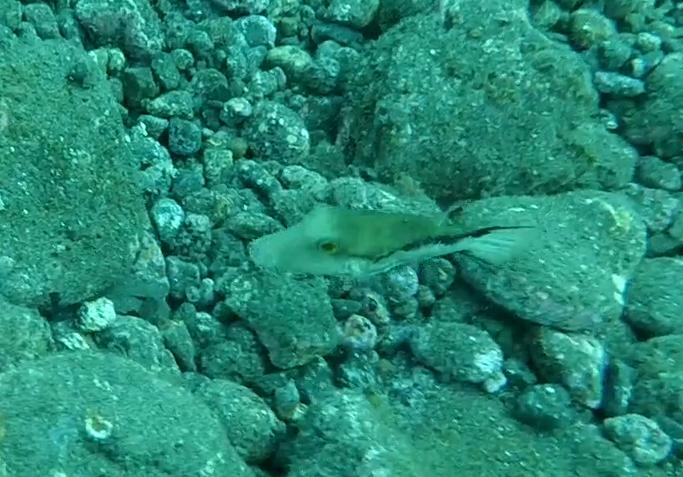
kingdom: Animalia
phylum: Chordata
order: Tetraodontiformes
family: Tetraodontidae
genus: Canthigaster
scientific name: Canthigaster capistrata
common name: Macaronesian sharpnose-puffer
